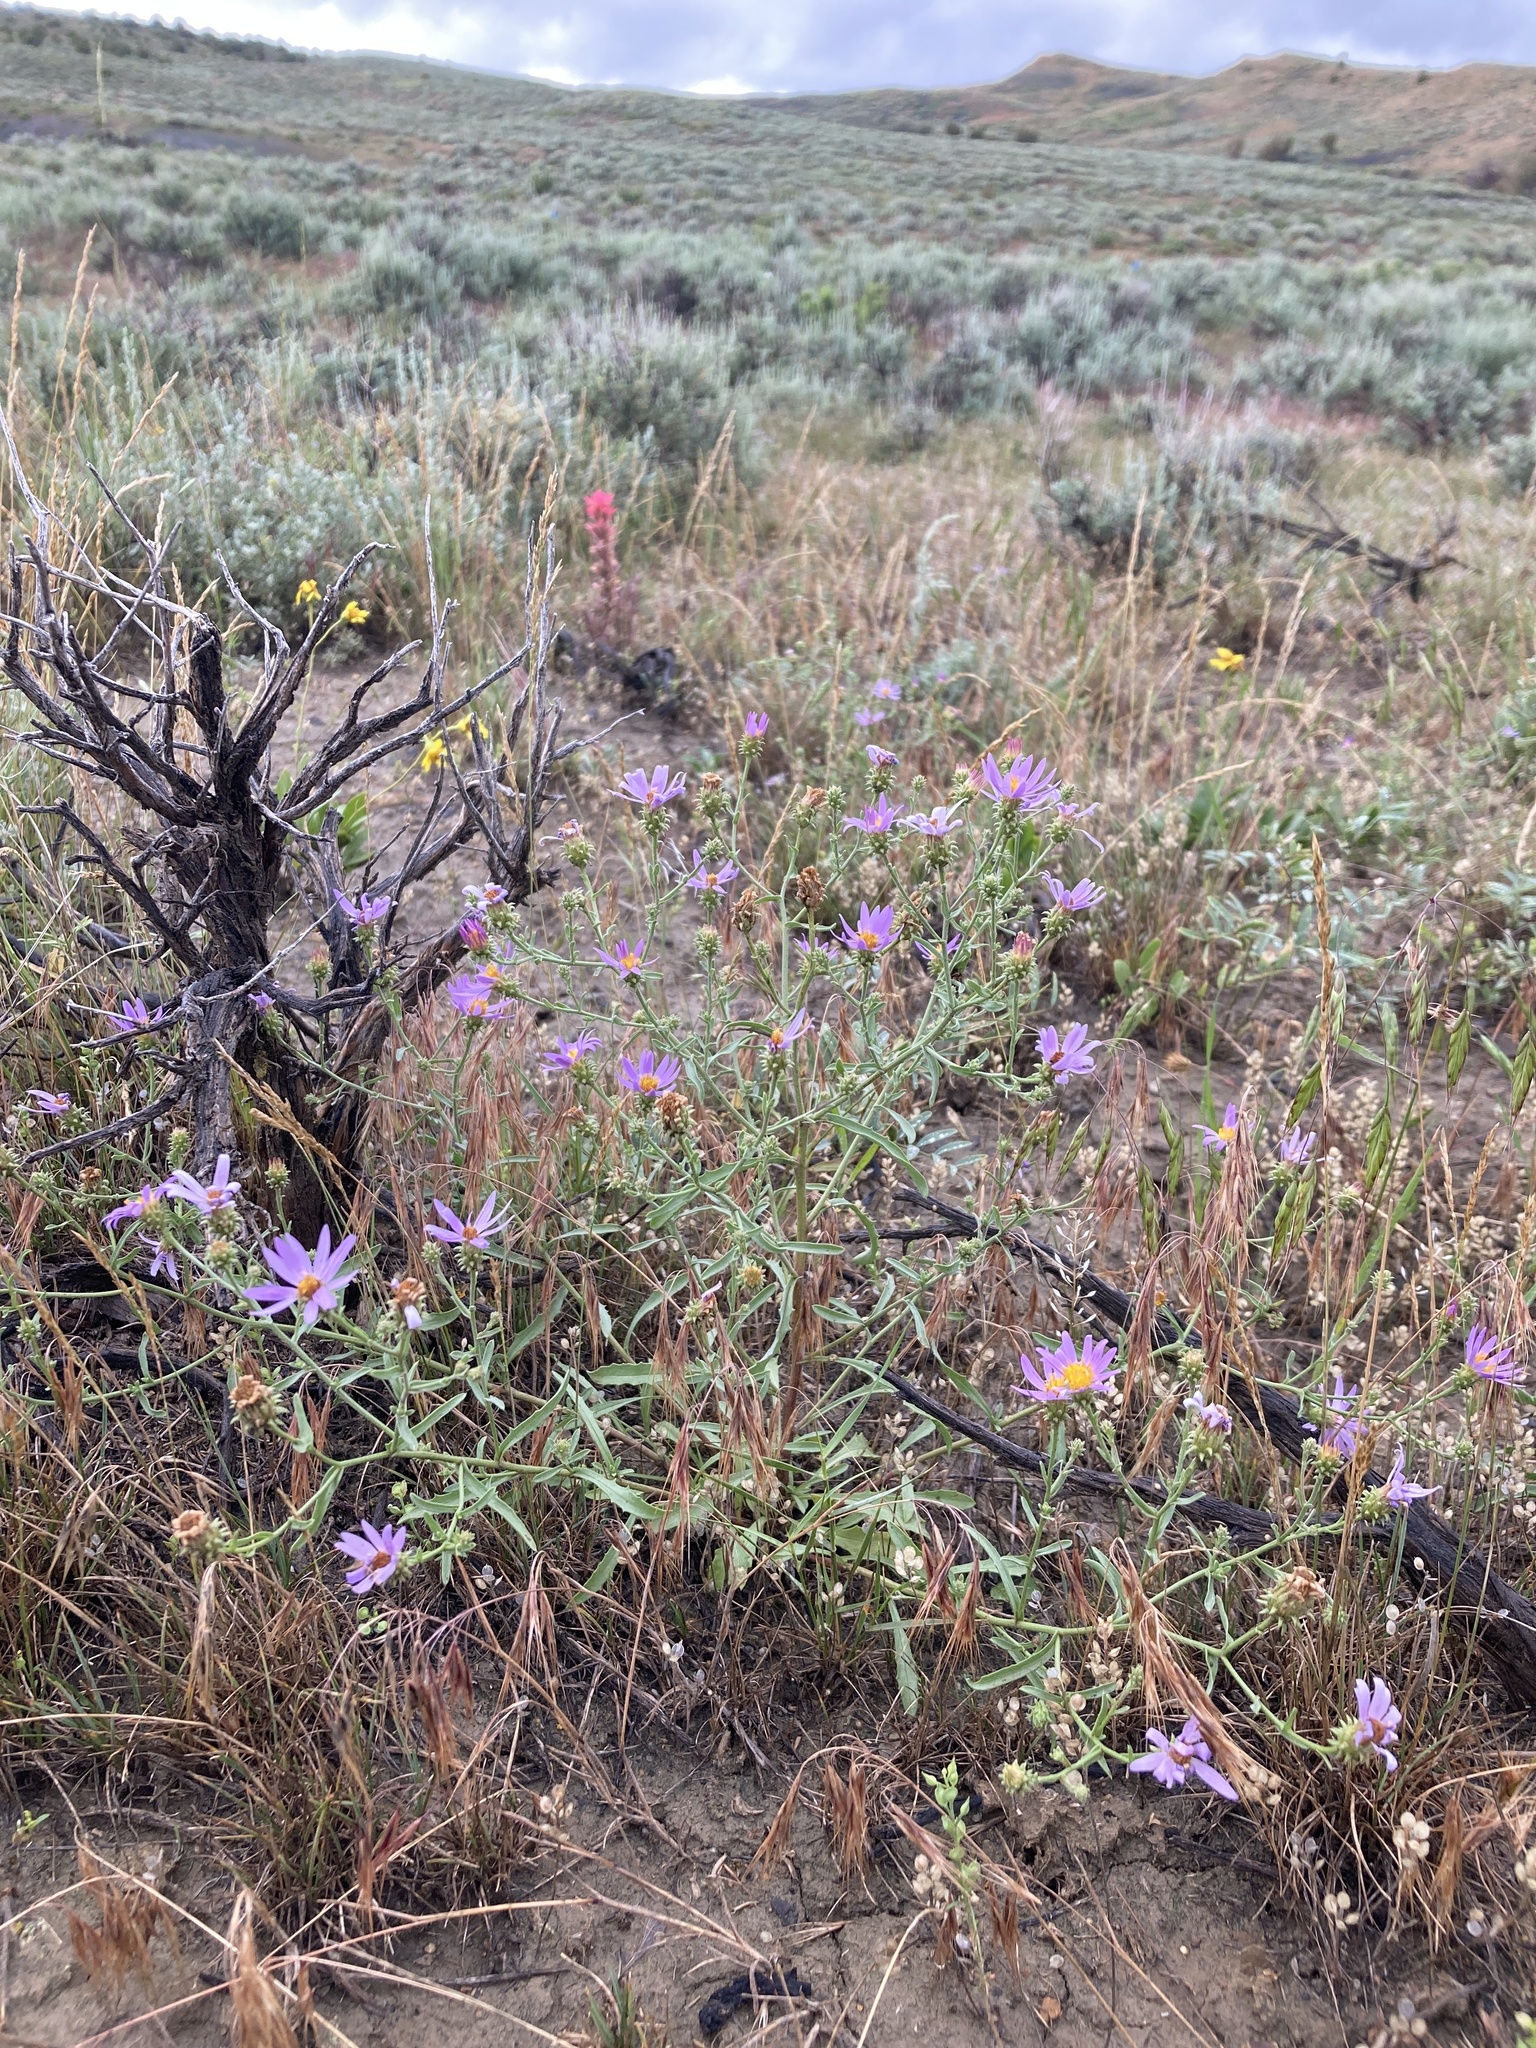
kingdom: Plantae
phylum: Tracheophyta
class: Magnoliopsida
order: Asterales
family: Asteraceae
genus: Dieteria
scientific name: Dieteria canescens
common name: Hoary-aster
